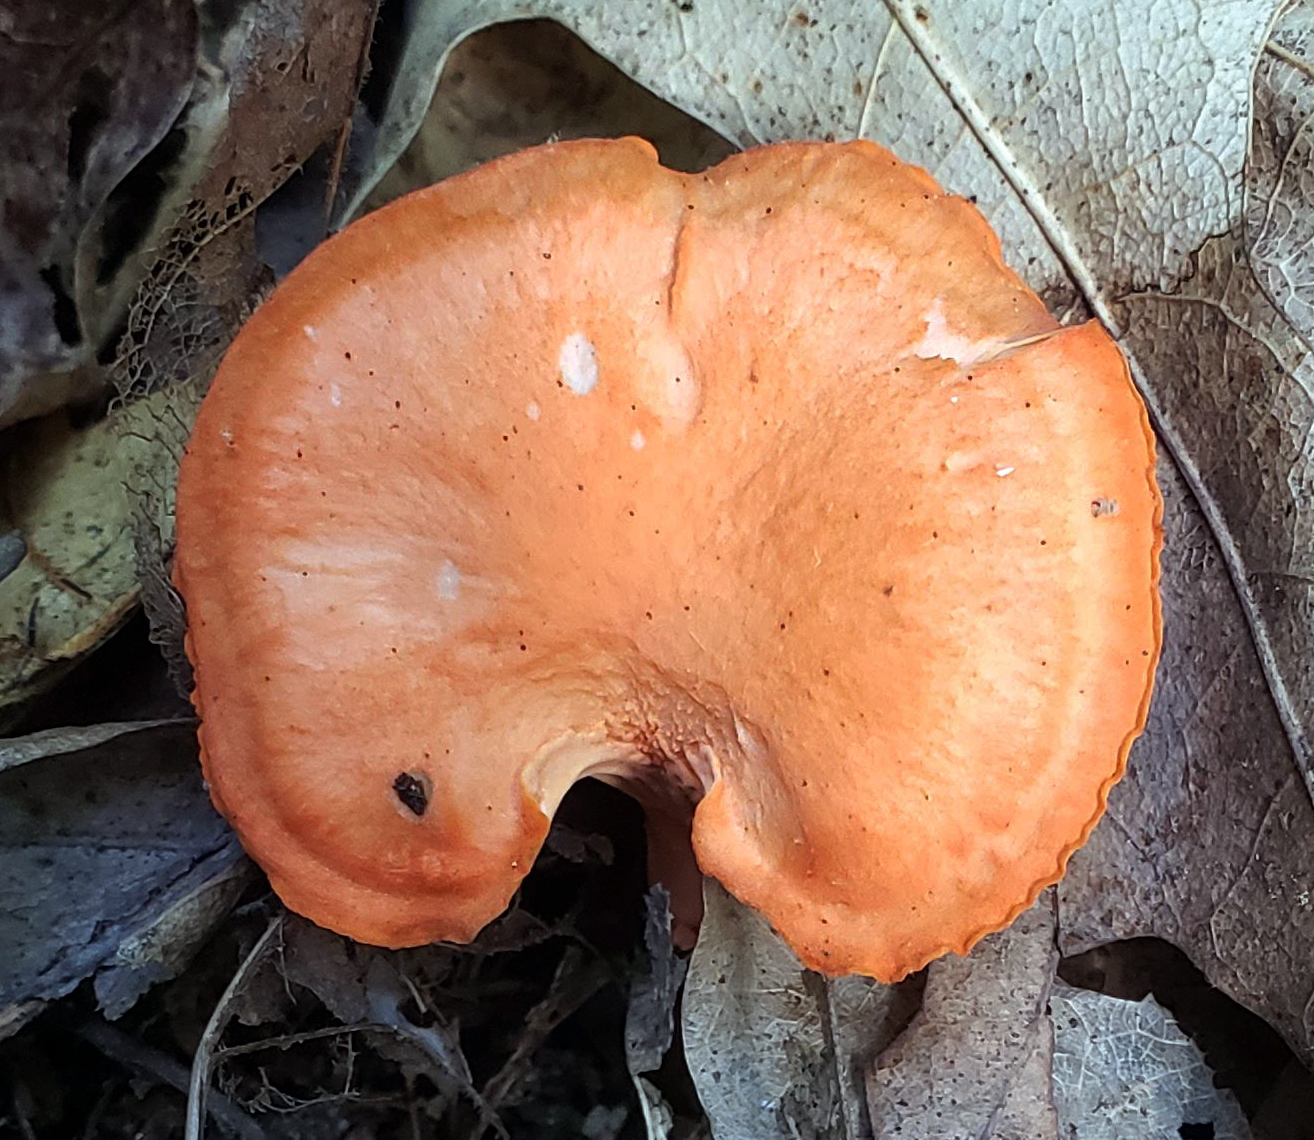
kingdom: Fungi
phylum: Basidiomycota
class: Agaricomycetes
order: Cantharellales
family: Hydnaceae
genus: Cantharellus
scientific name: Cantharellus cinnabarinus
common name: Cinnabar chanterelle
